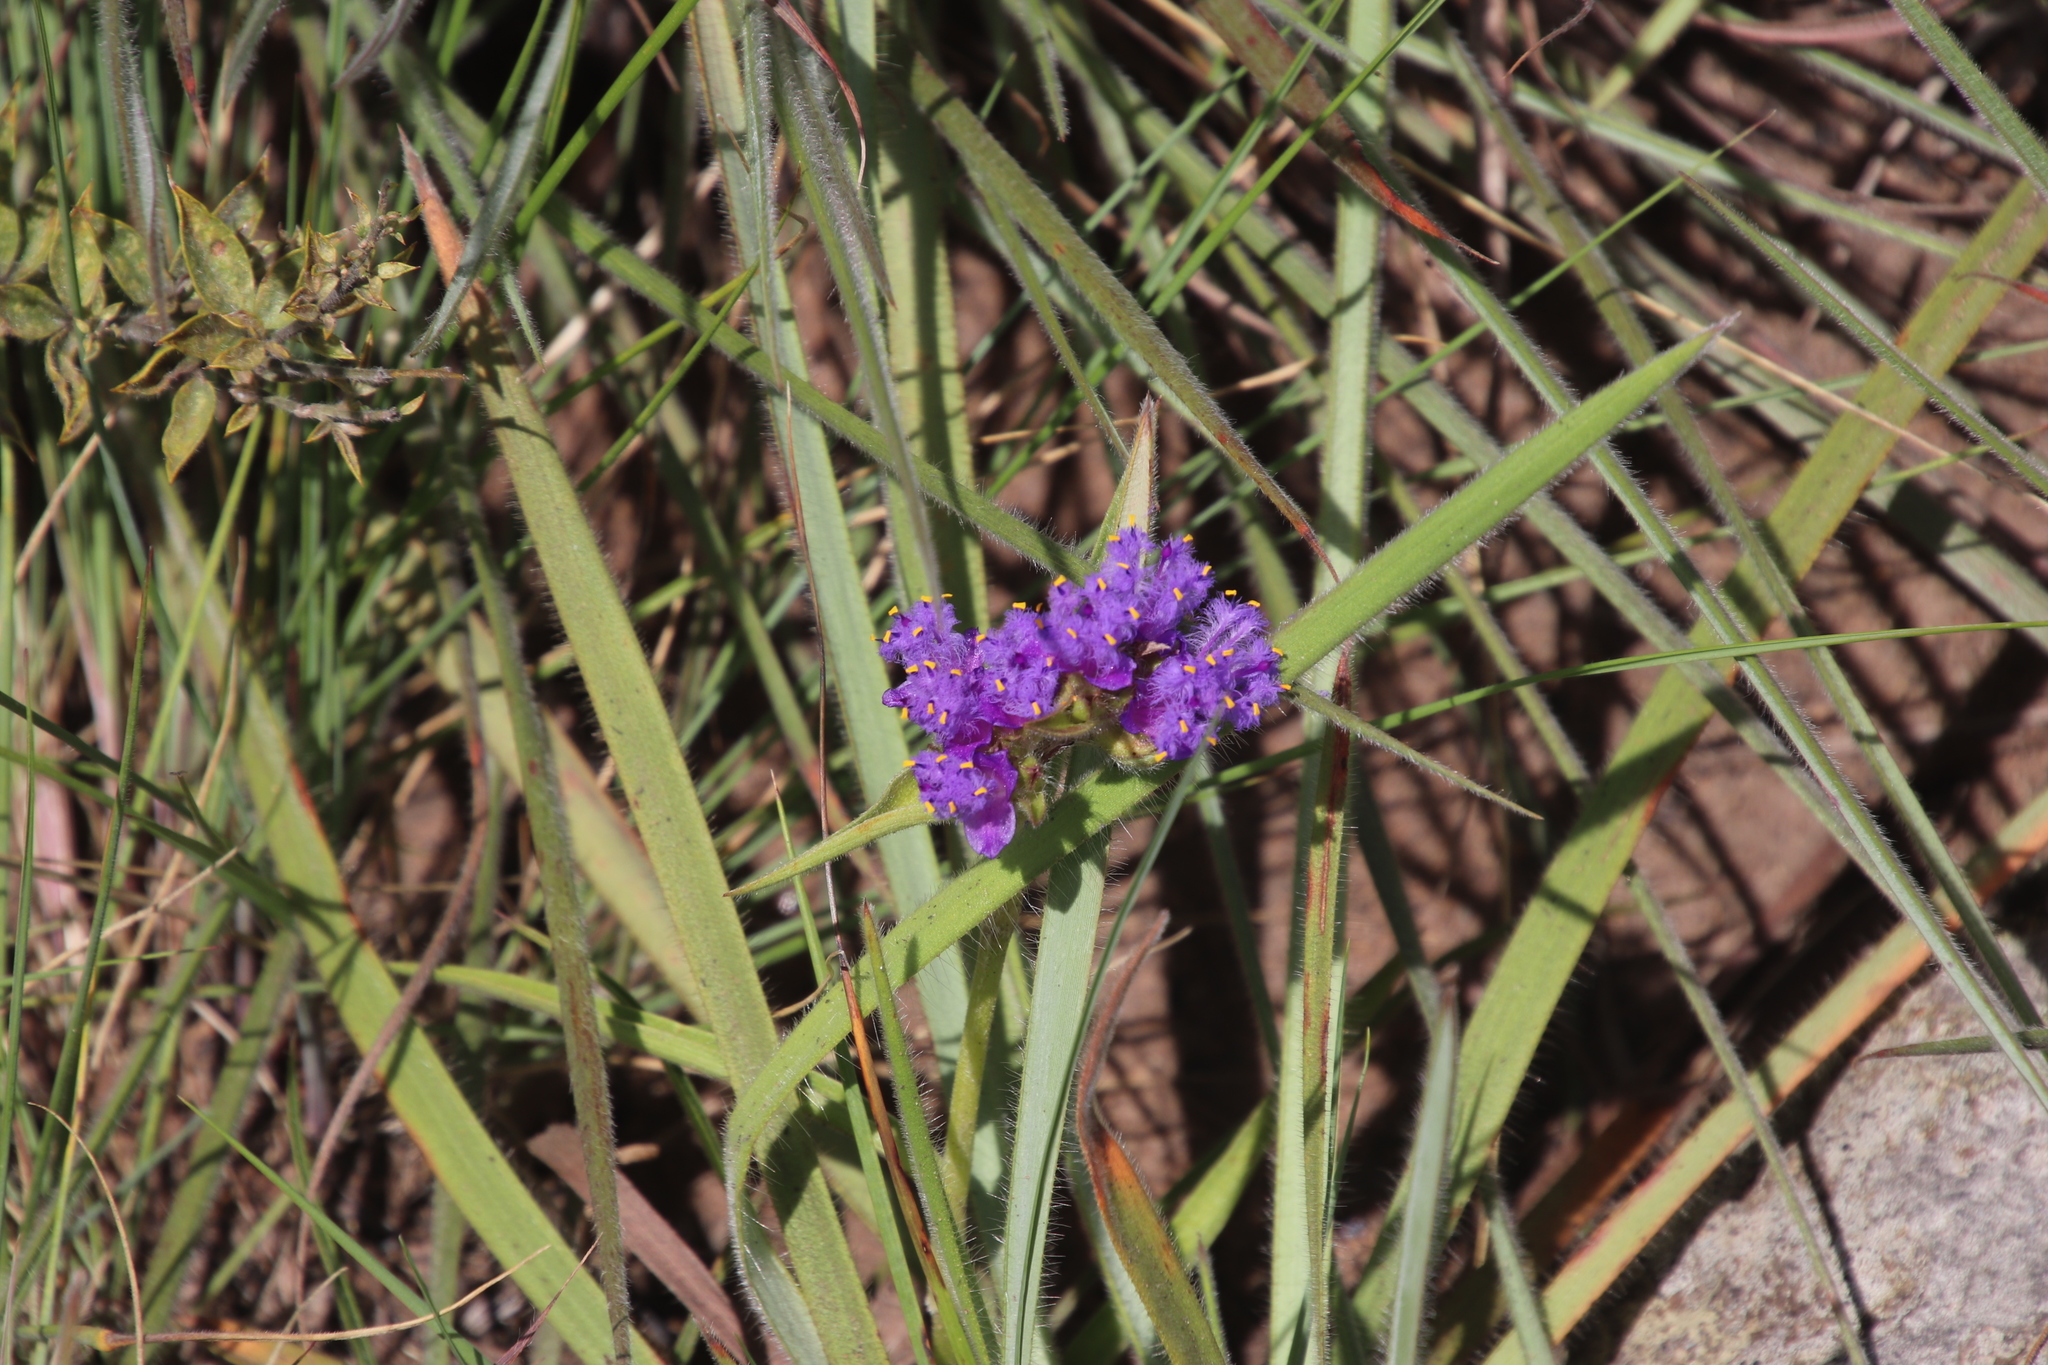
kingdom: Plantae
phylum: Tracheophyta
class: Liliopsida
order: Commelinales
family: Commelinaceae
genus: Cyanotis
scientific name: Cyanotis speciosa
